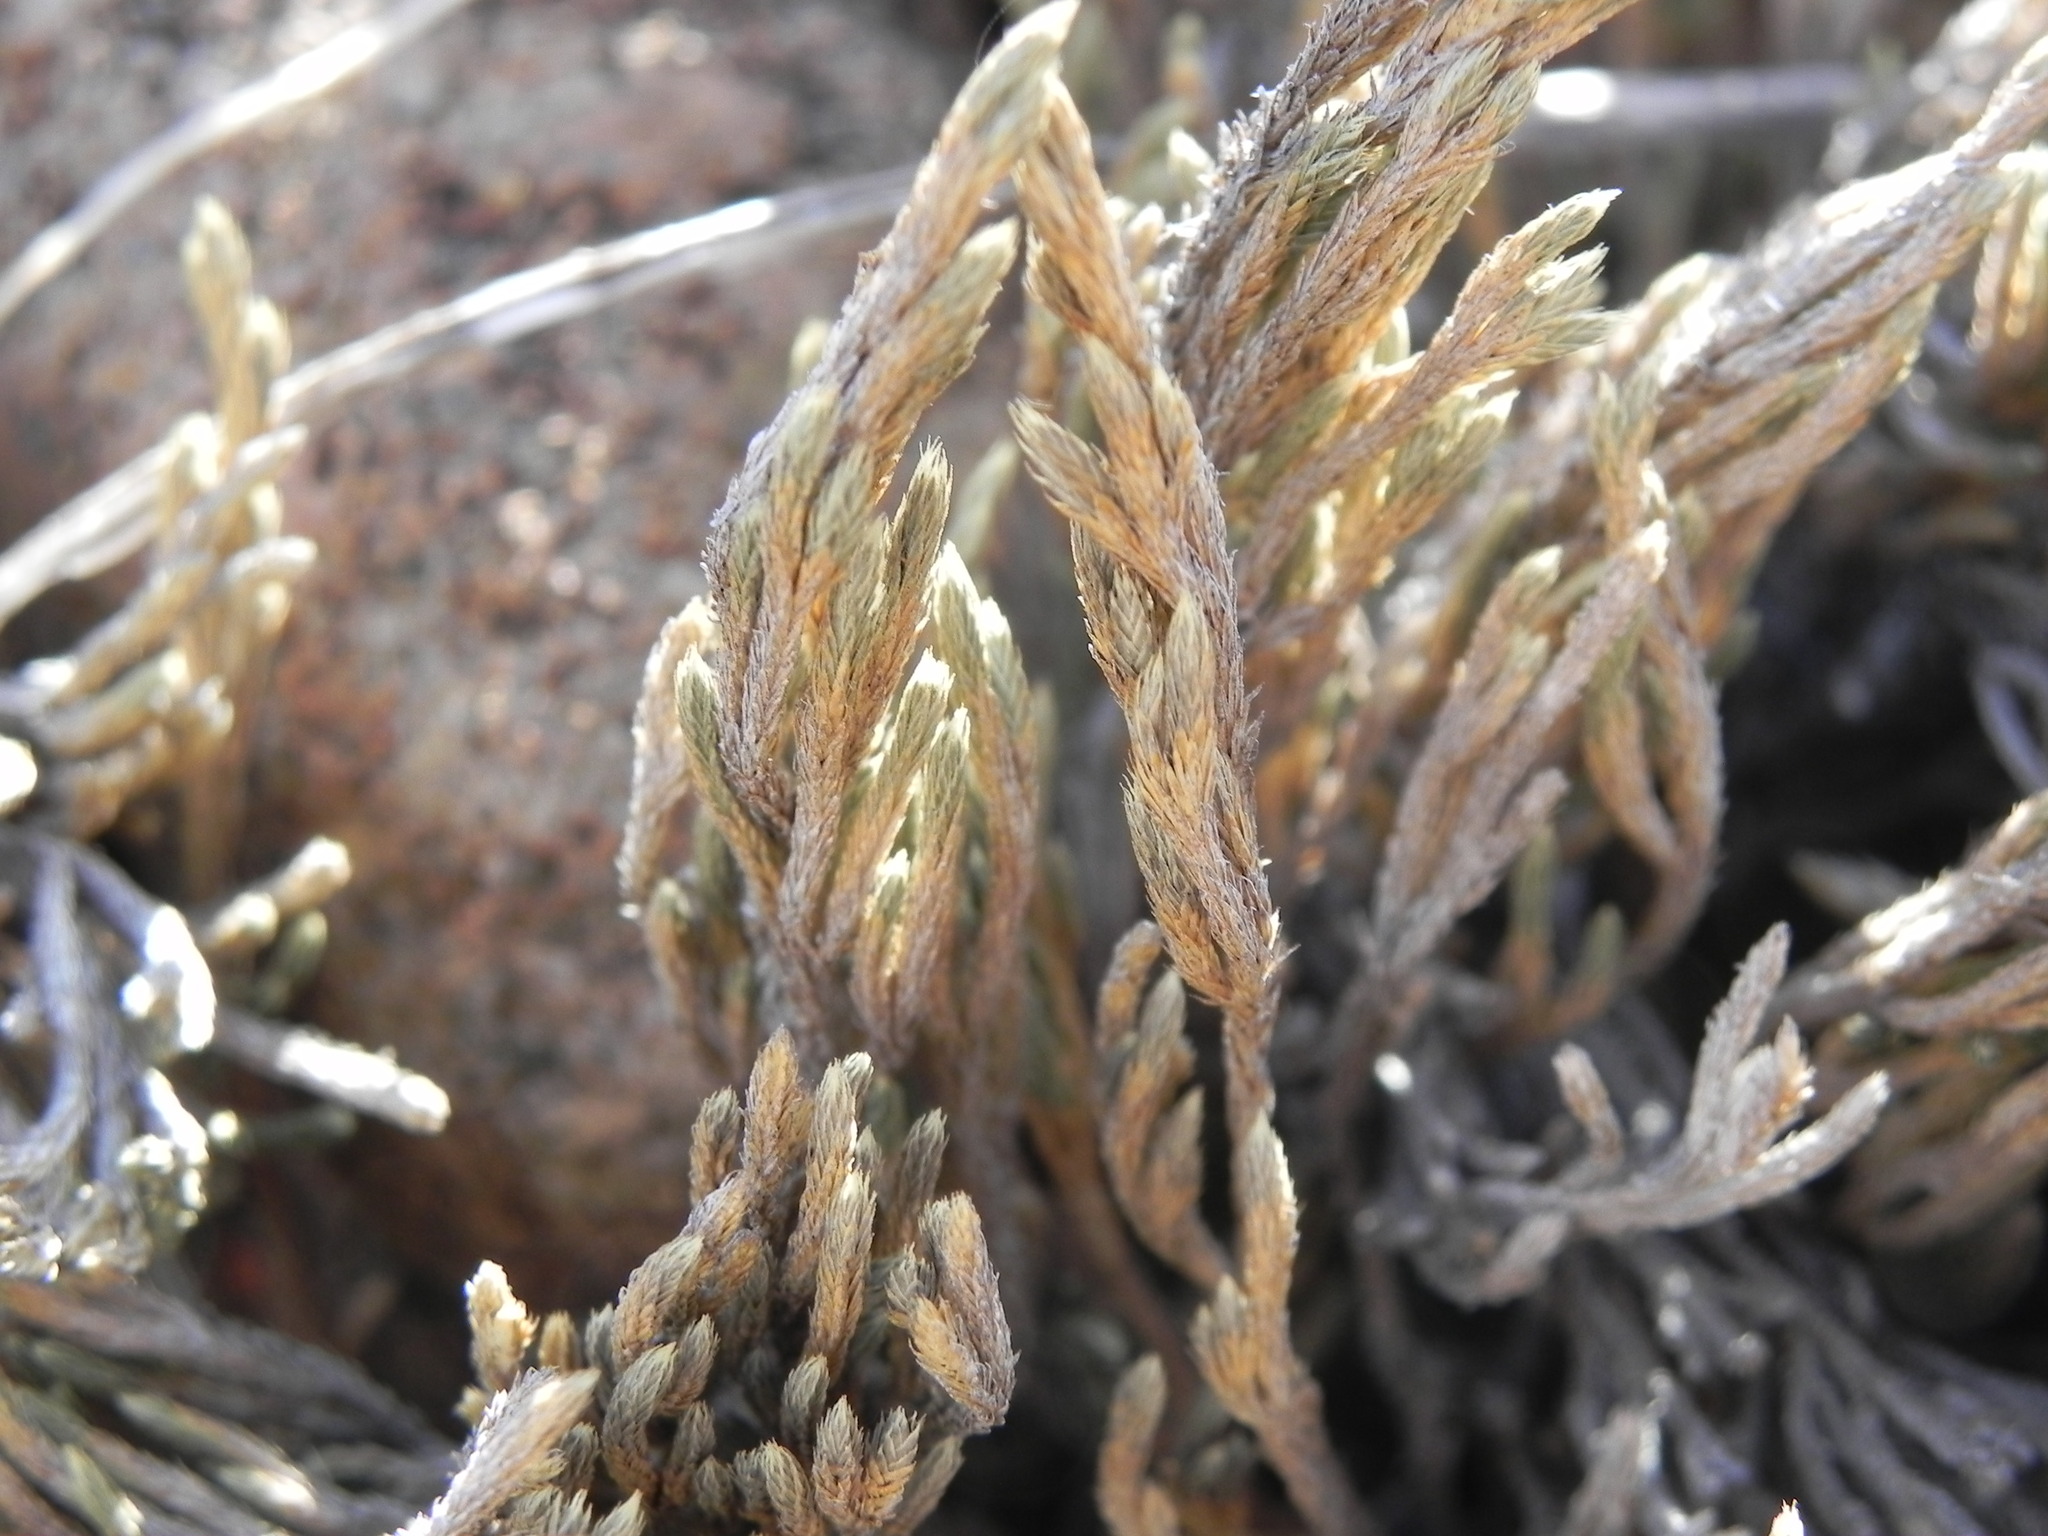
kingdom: Plantae
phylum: Tracheophyta
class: Lycopodiopsida
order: Selaginellales
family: Selaginellaceae
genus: Selaginella
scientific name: Selaginella bigelovii
